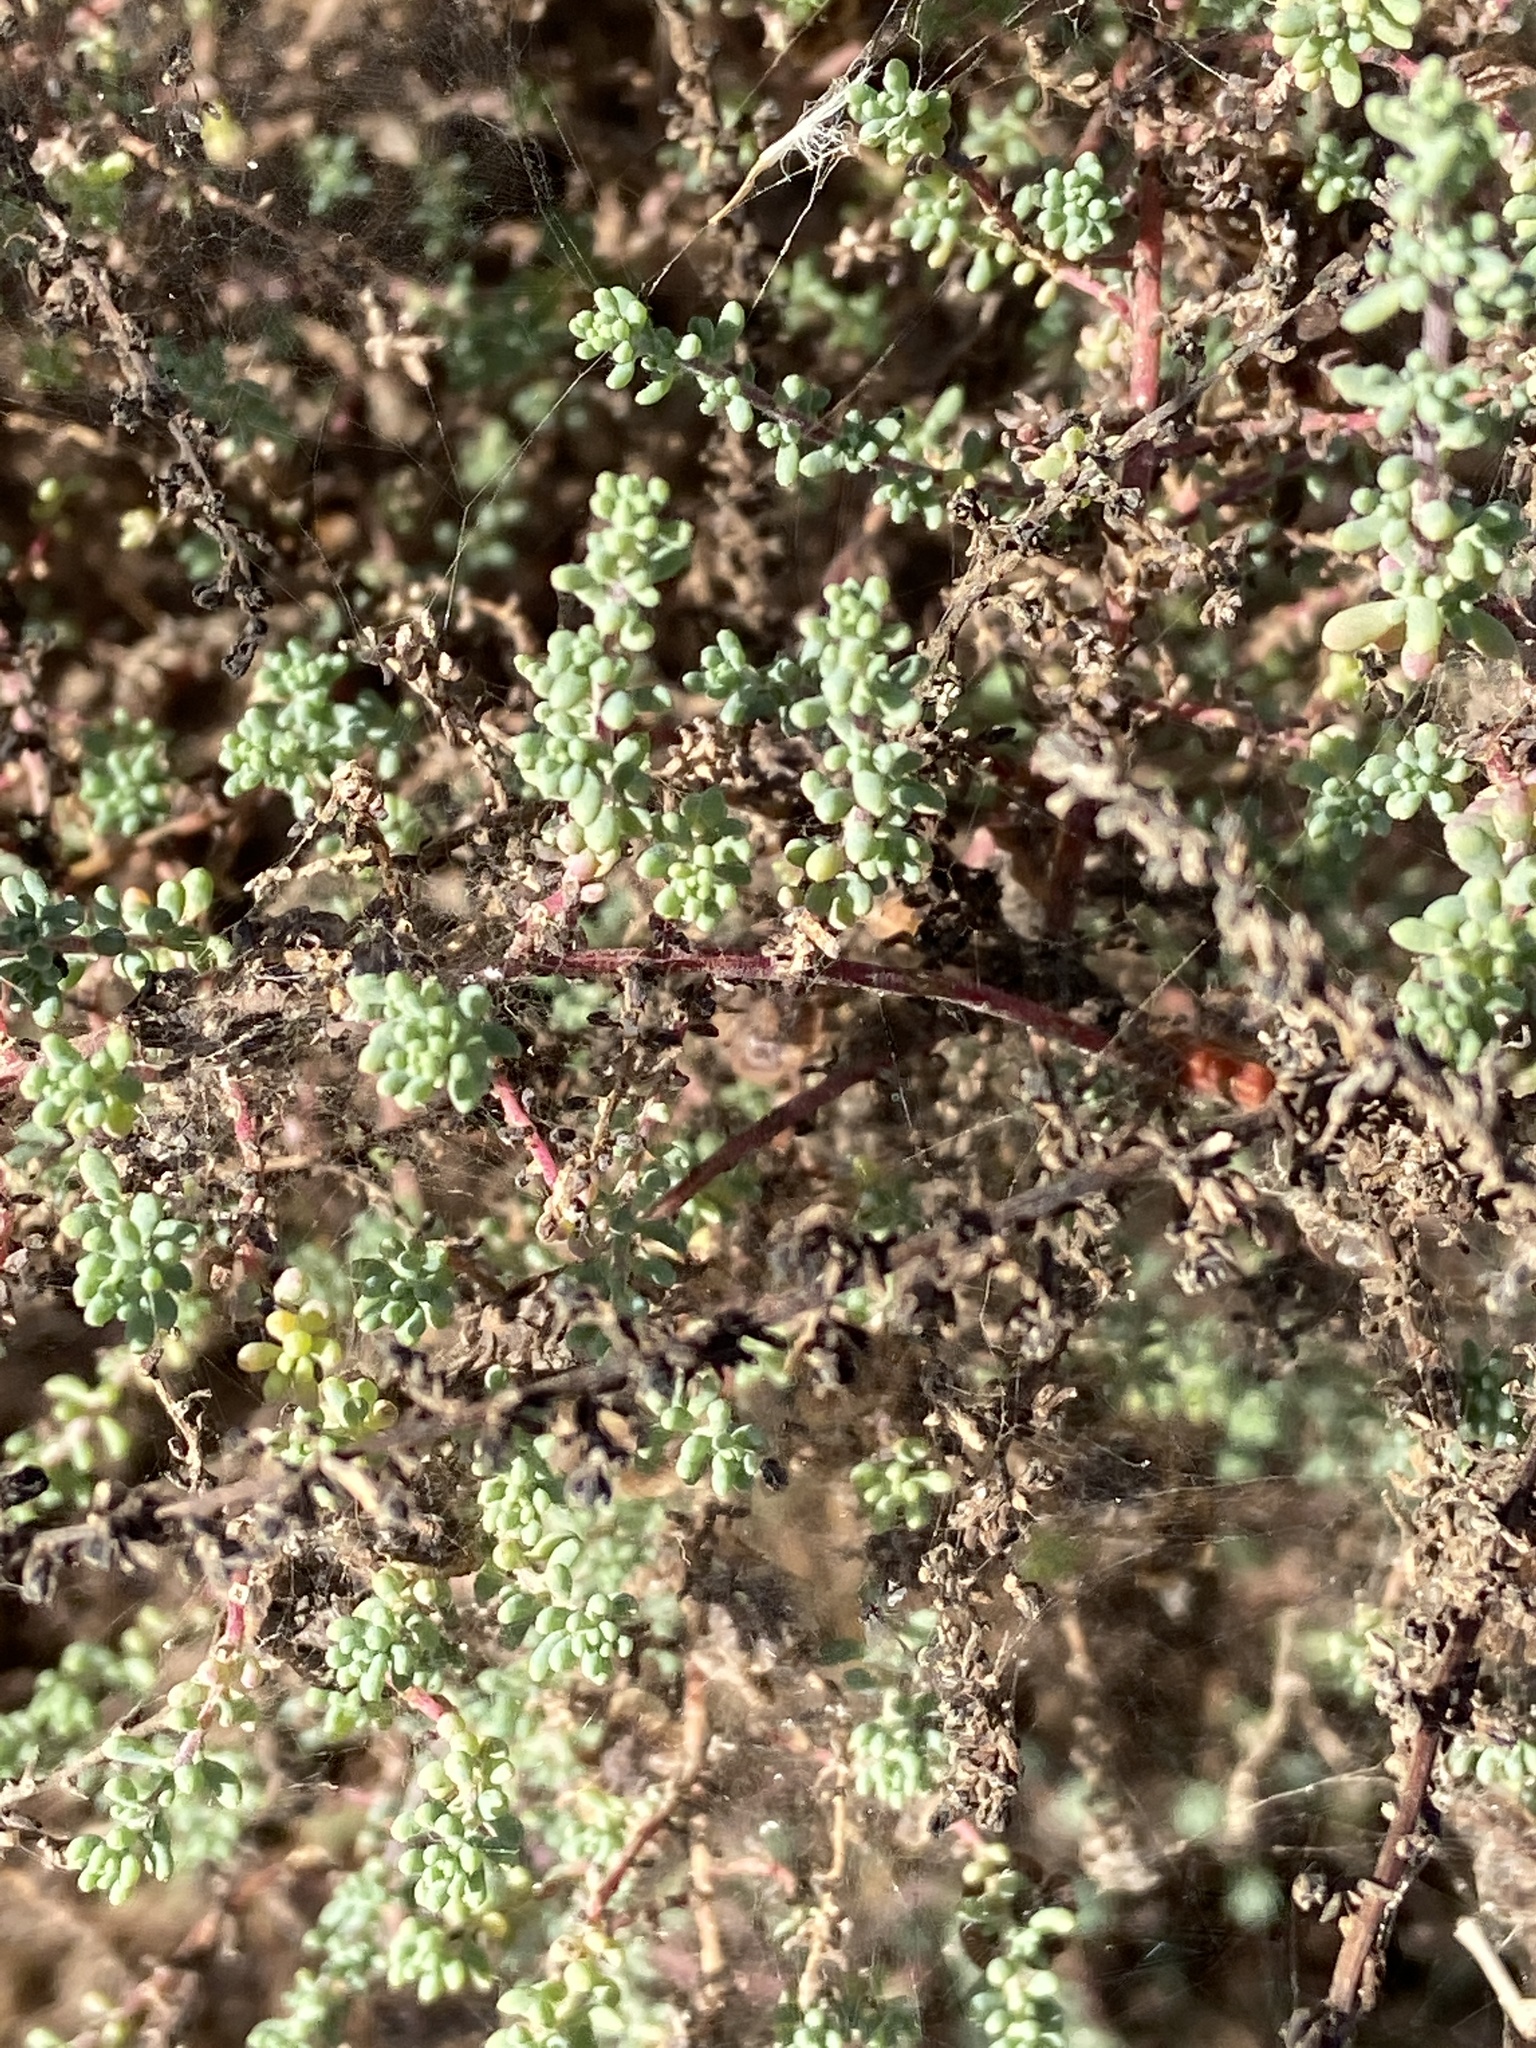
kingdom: Plantae
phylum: Tracheophyta
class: Magnoliopsida
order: Caryophyllales
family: Amaranthaceae
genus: Nitrosalsola
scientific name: Nitrosalsola vermiculata
